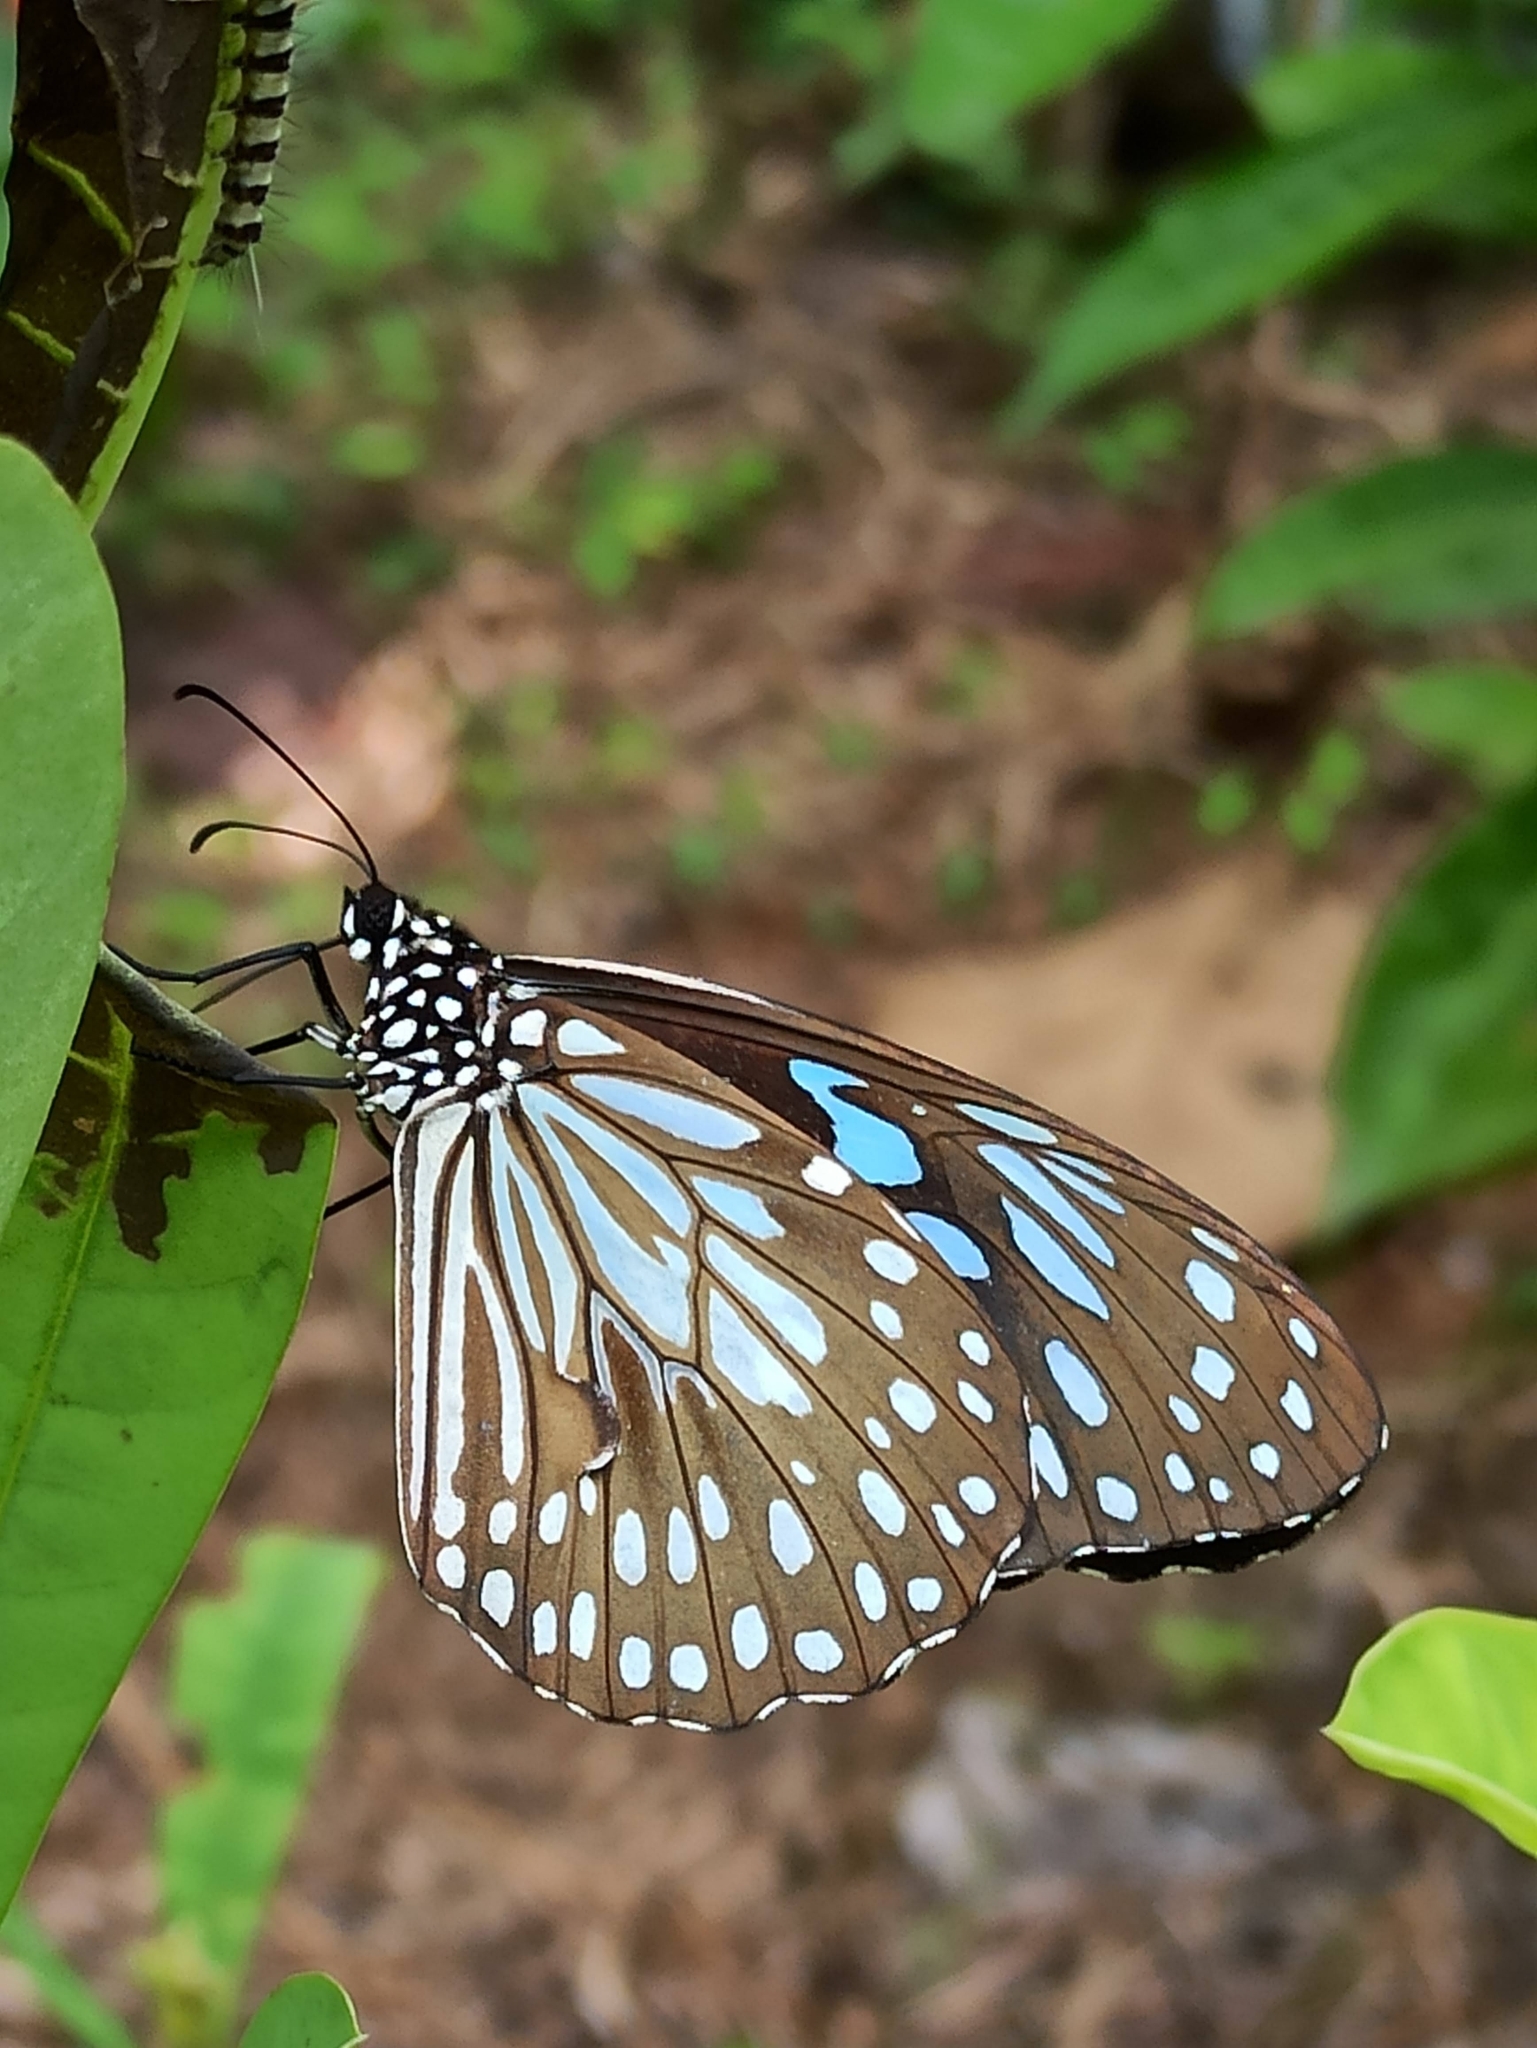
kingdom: Animalia
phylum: Arthropoda
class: Insecta
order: Lepidoptera
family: Nymphalidae
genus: Tirumala
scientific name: Tirumala septentrionis
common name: Dark blue tiger butterfly
